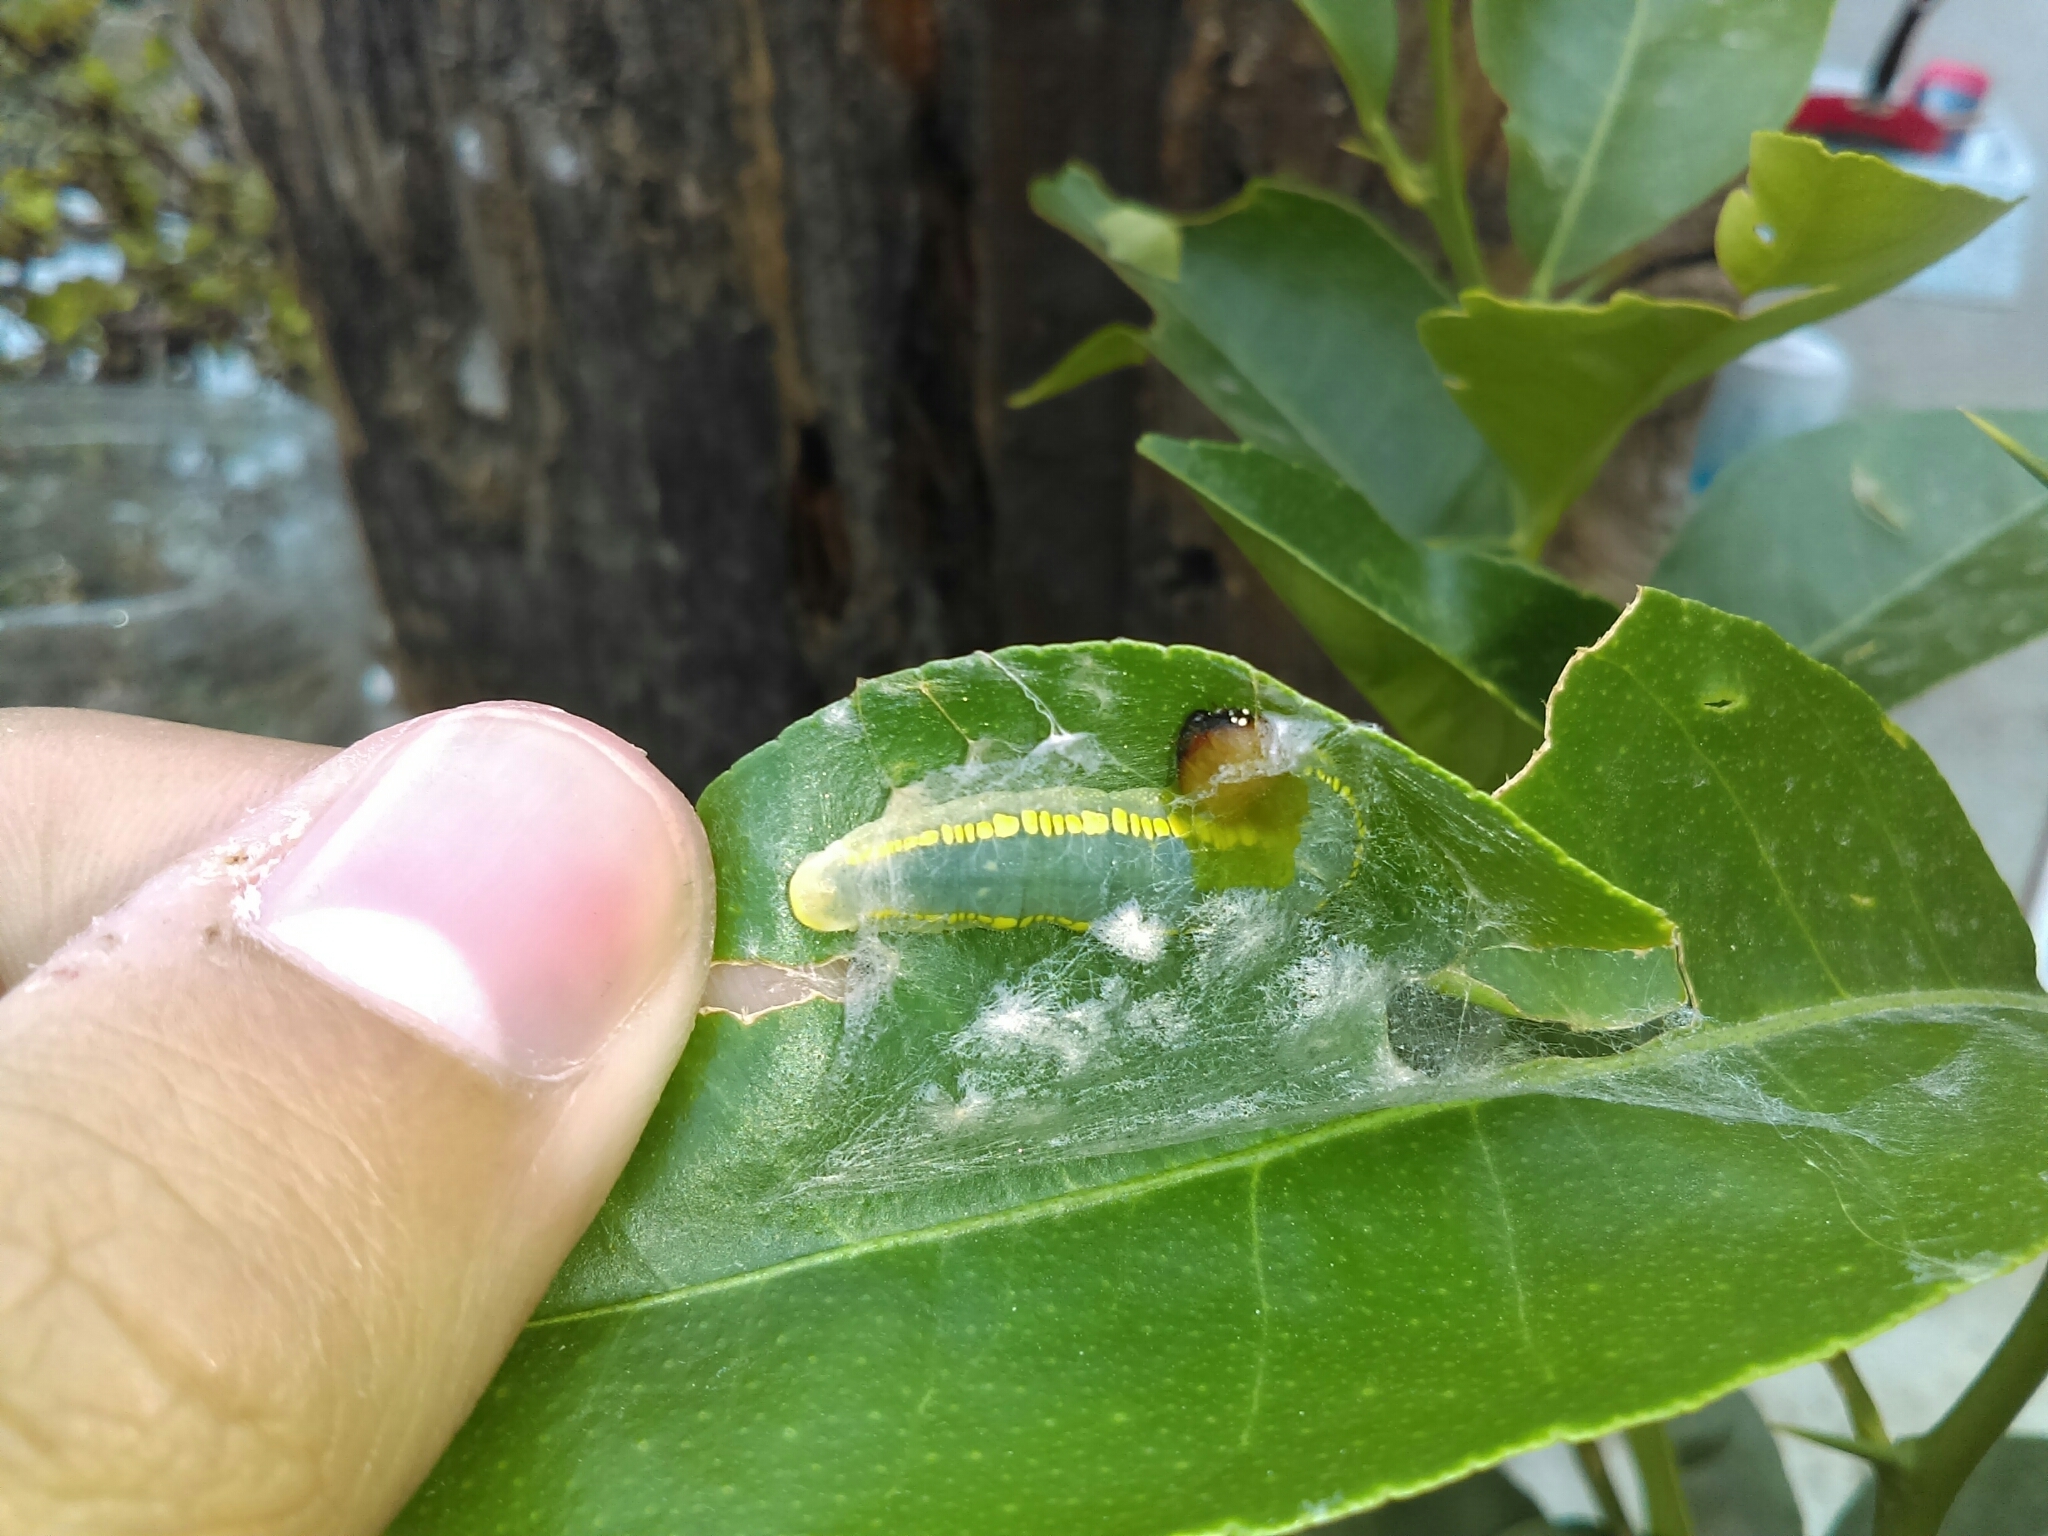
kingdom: Animalia
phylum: Arthropoda
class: Insecta
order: Lepidoptera
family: Hesperiidae
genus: Achlyodes
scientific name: Achlyodes pallida
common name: Pale sicklewing
